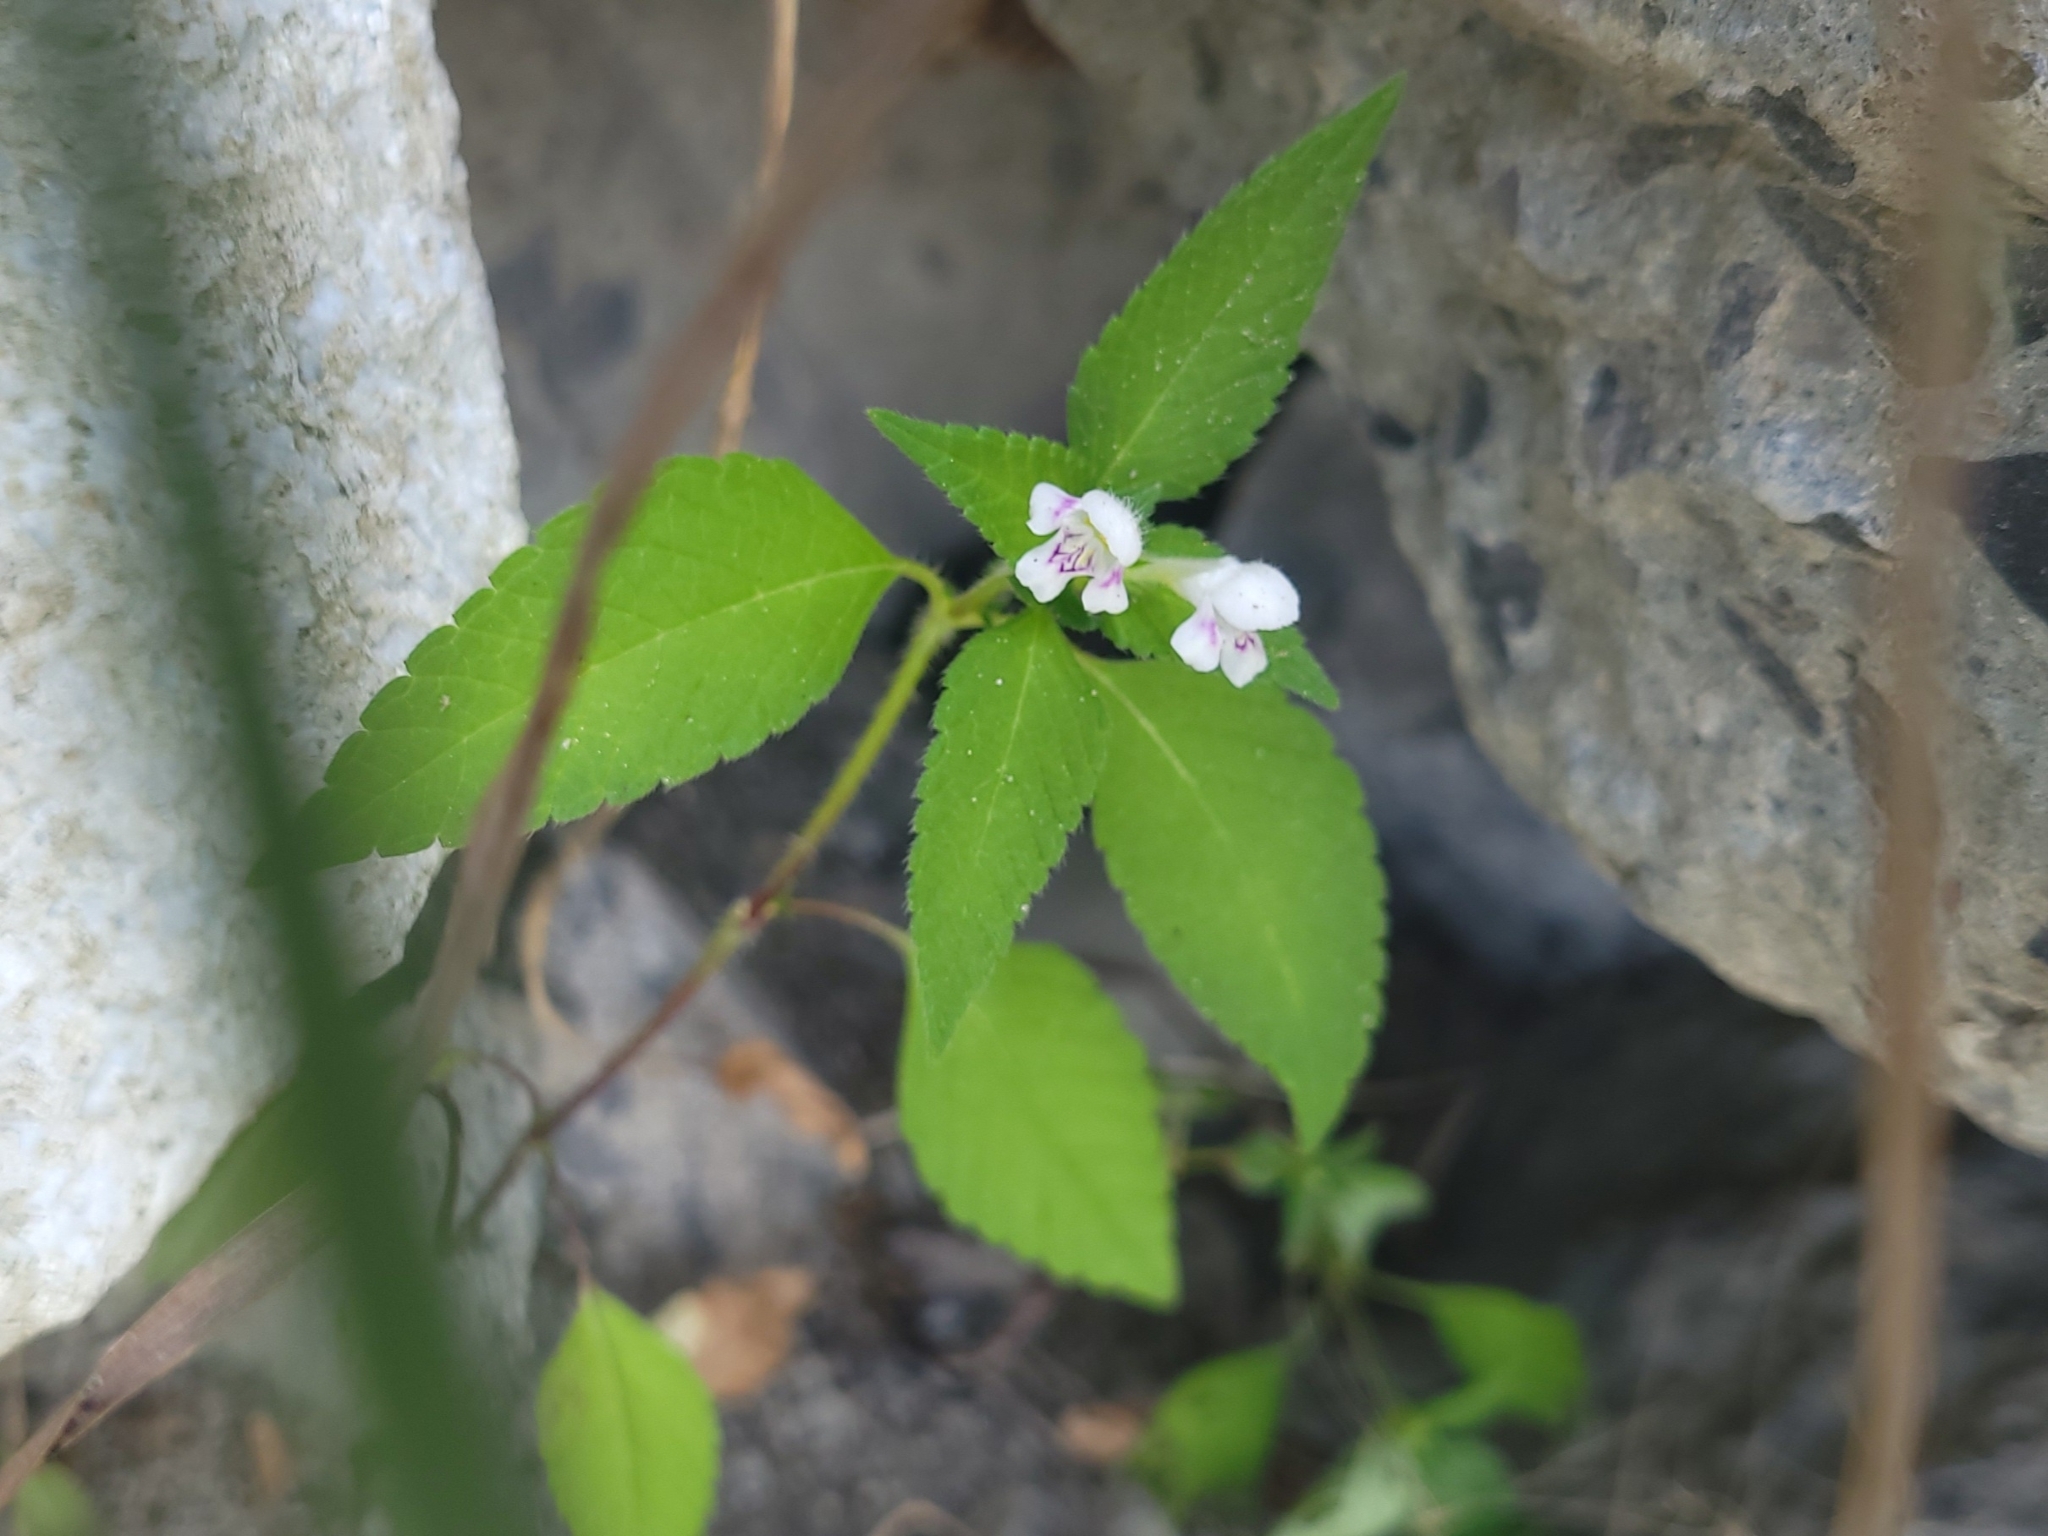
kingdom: Plantae
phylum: Tracheophyta
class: Magnoliopsida
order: Lamiales
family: Lamiaceae
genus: Galeopsis
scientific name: Galeopsis tetrahit
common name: Common hemp-nettle
